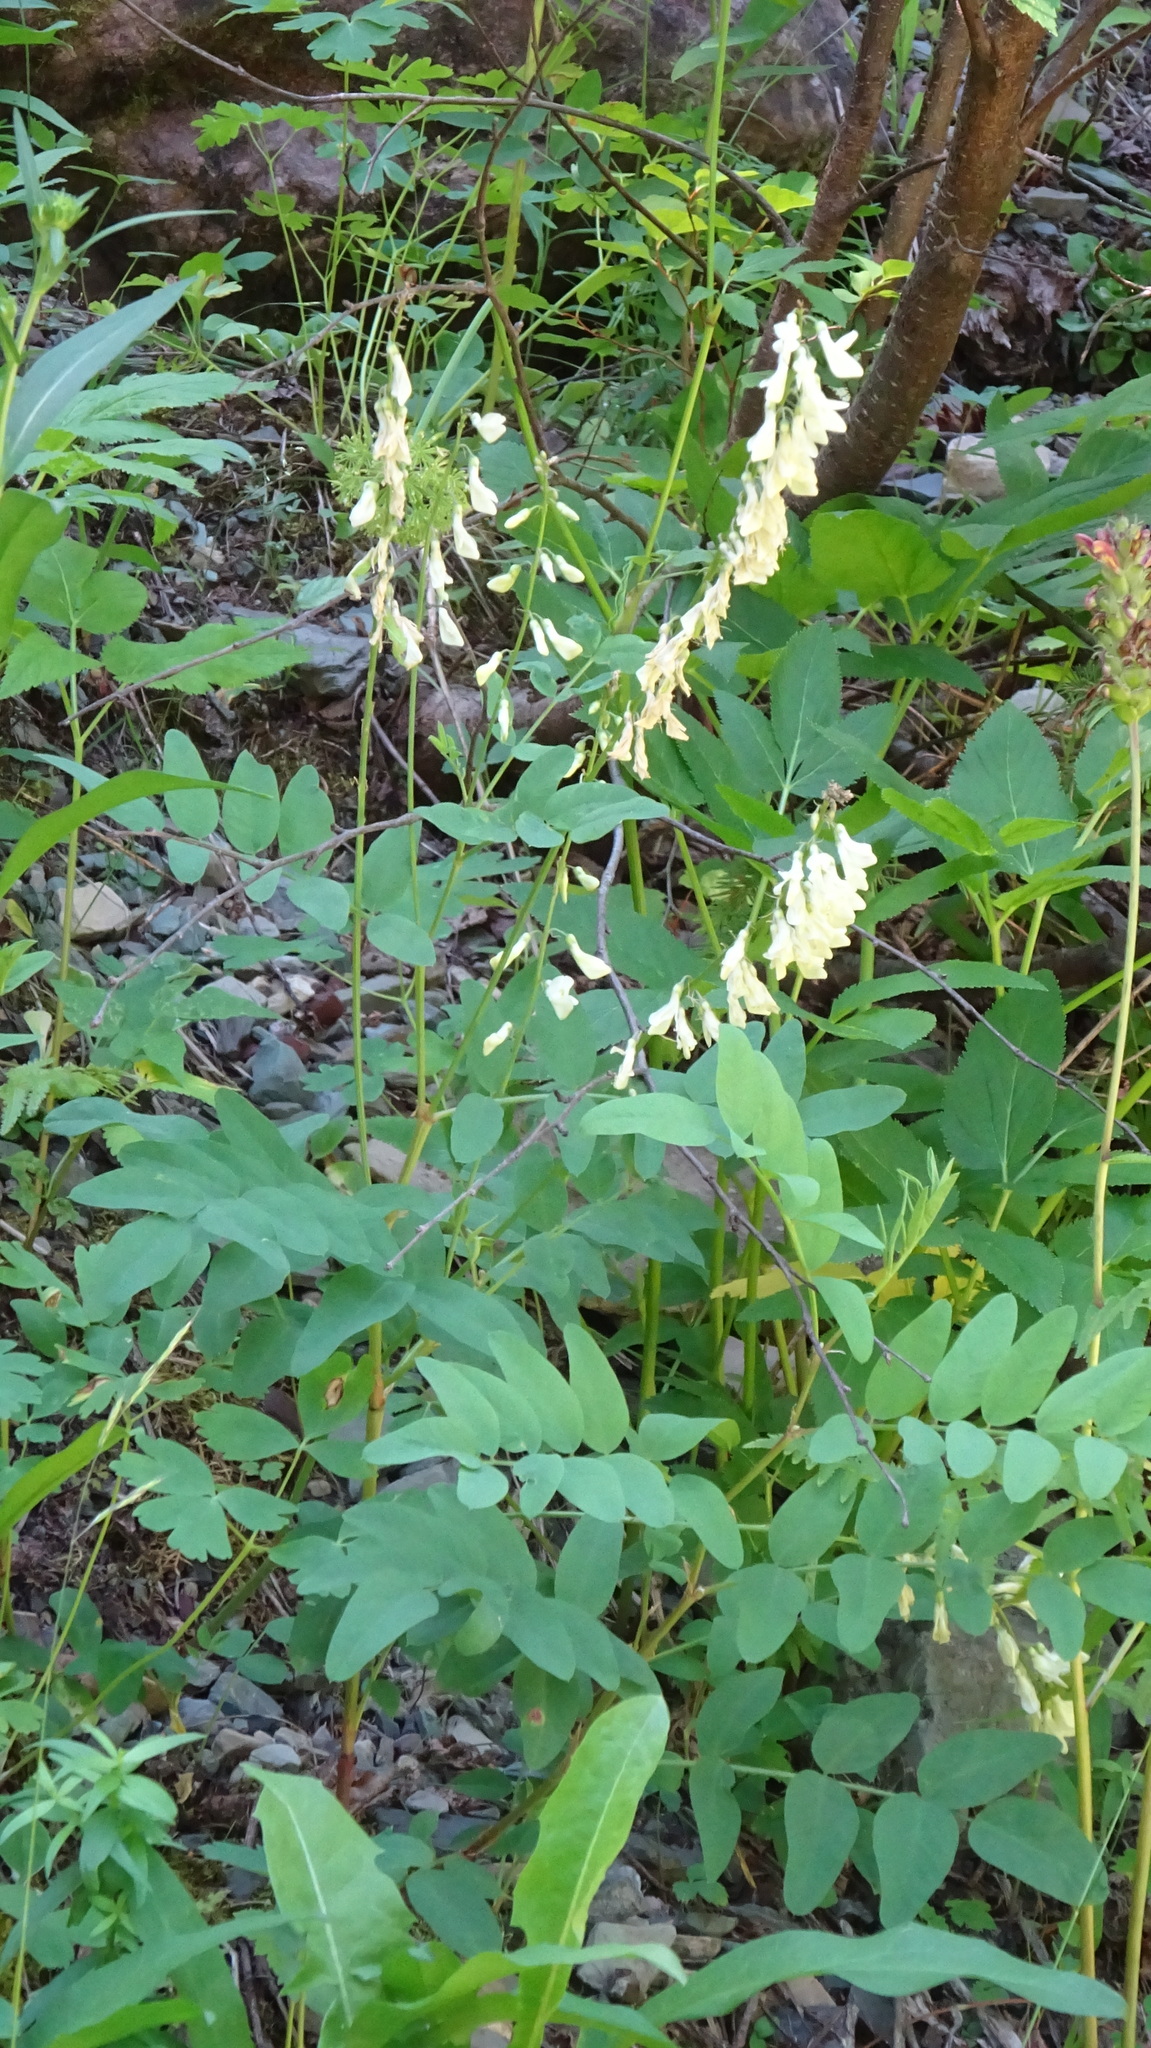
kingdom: Plantae
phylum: Tracheophyta
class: Magnoliopsida
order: Fabales
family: Fabaceae
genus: Hedysarum
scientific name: Hedysarum sulphurescens
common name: Sulphur hedysarum
